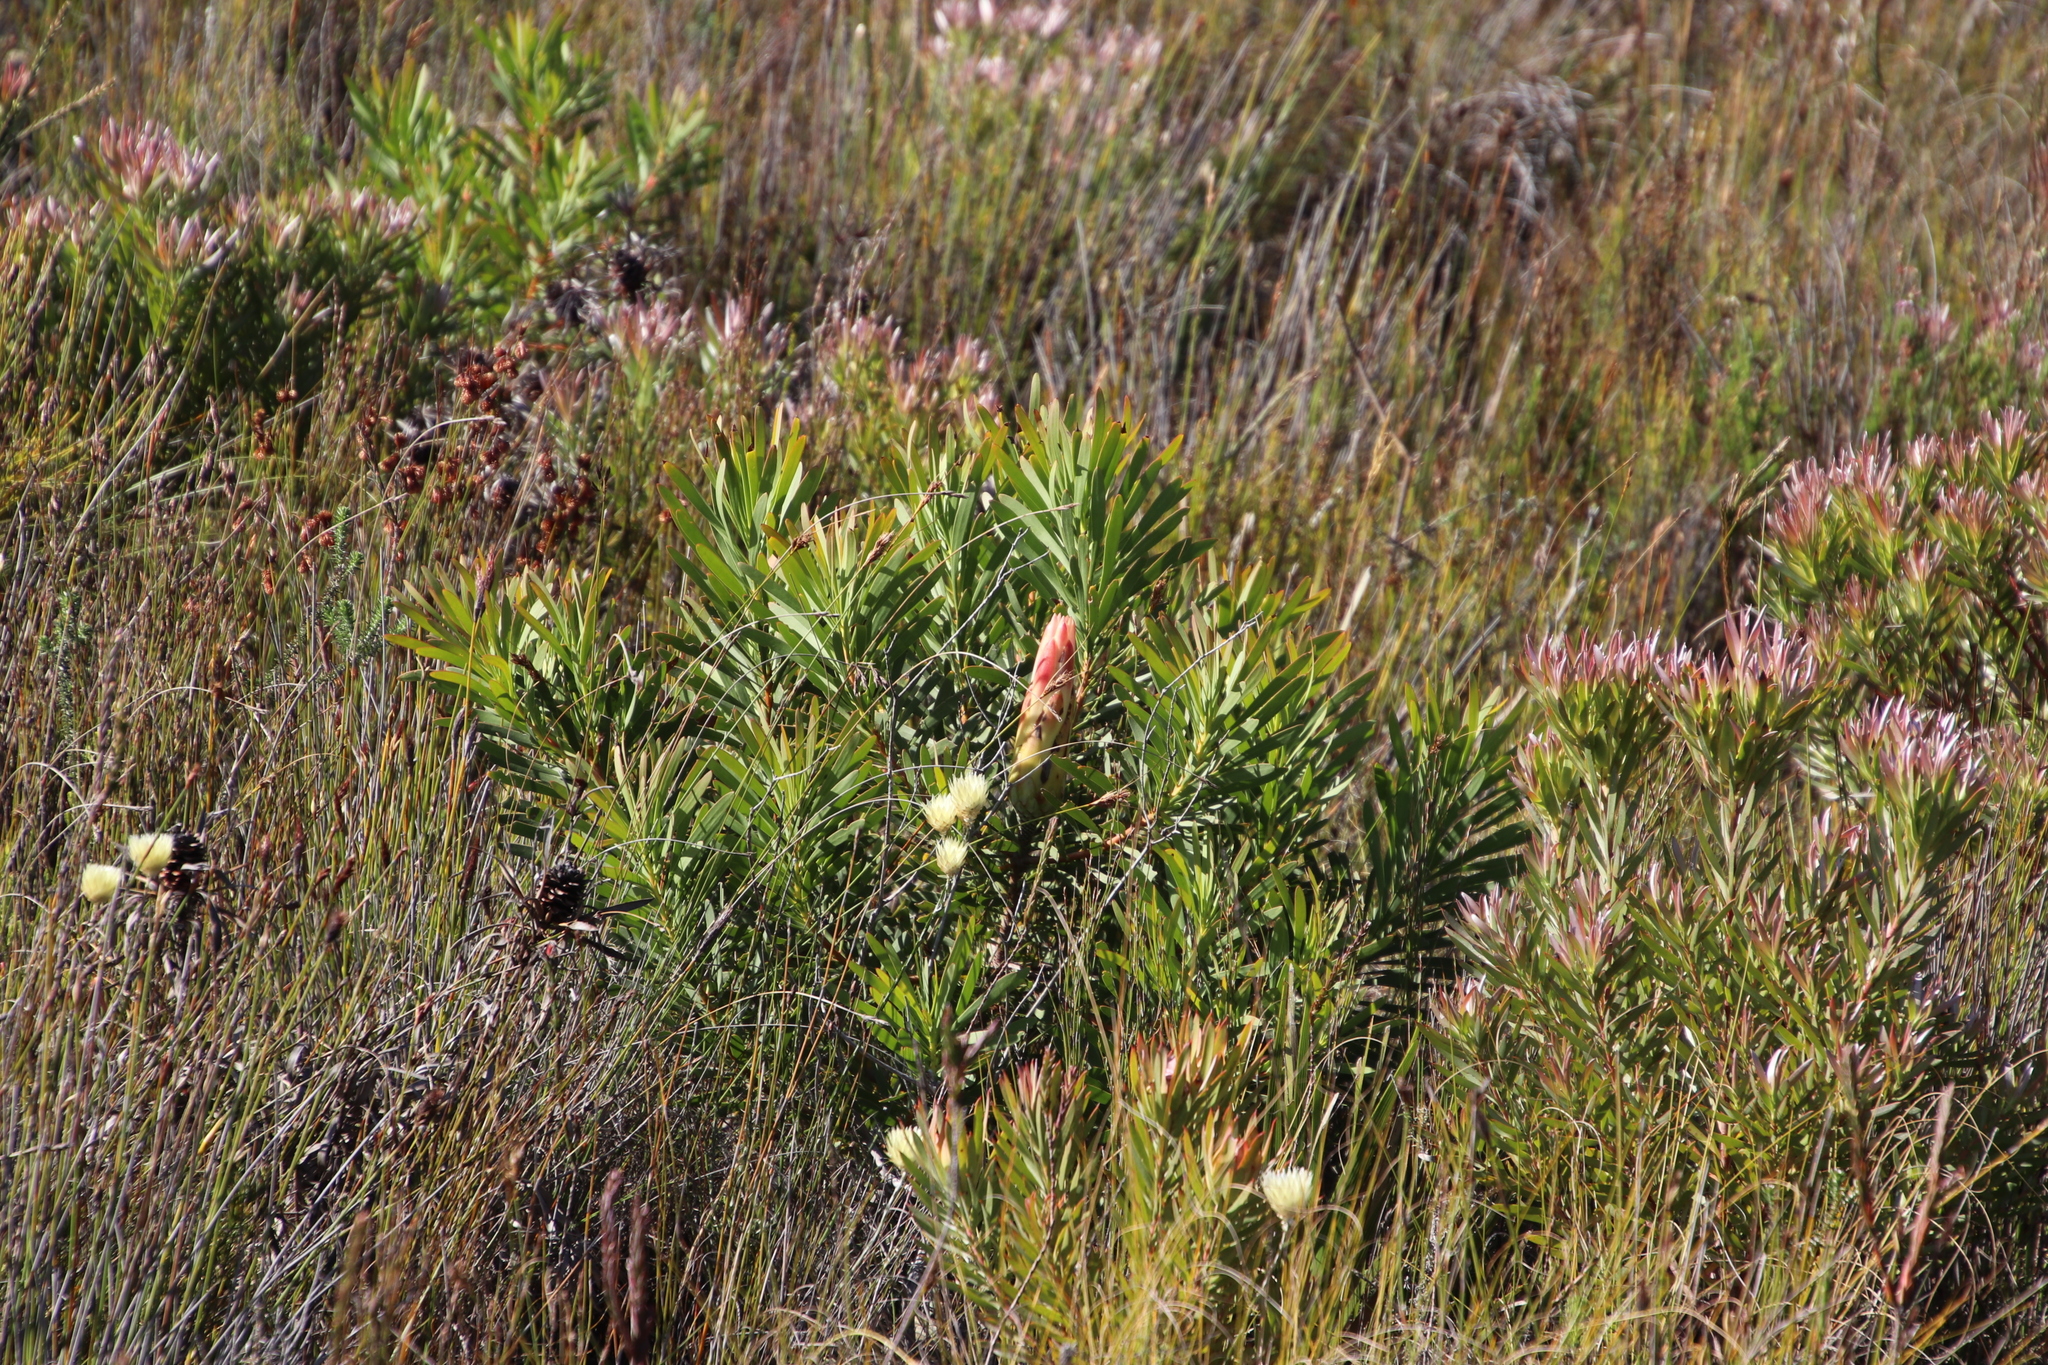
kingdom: Plantae
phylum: Tracheophyta
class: Magnoliopsida
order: Proteales
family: Proteaceae
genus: Protea
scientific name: Protea repens
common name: Sugarbush
